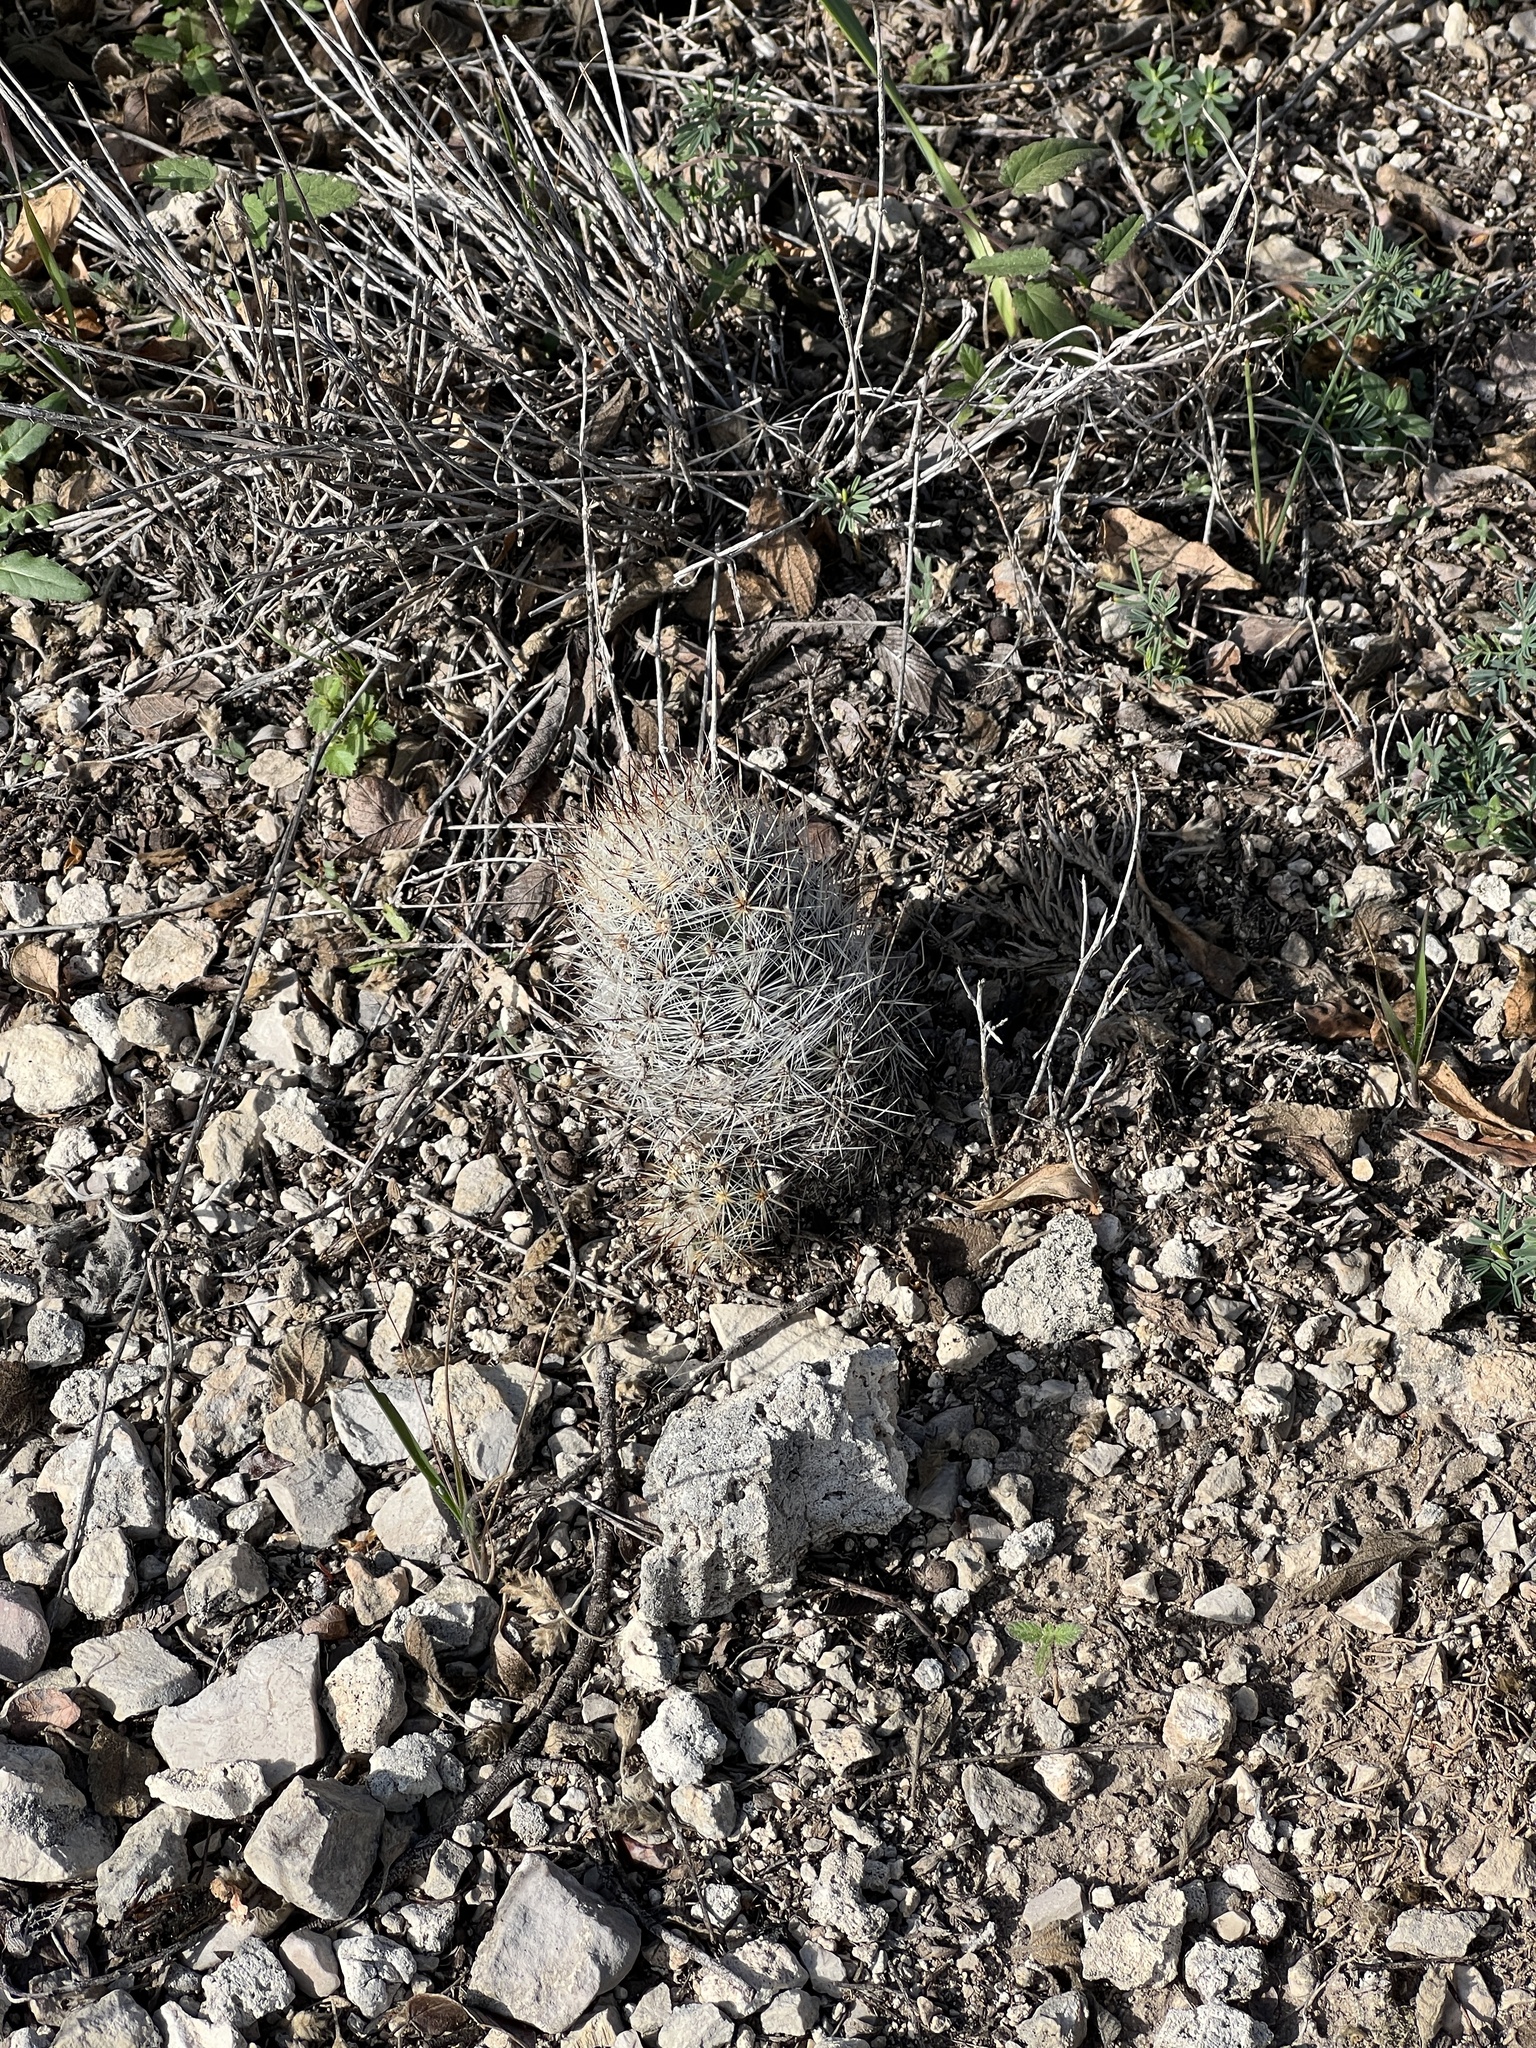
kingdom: Plantae
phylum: Tracheophyta
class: Magnoliopsida
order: Caryophyllales
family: Cactaceae
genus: Pelecyphora
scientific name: Pelecyphora emskoetteriana
